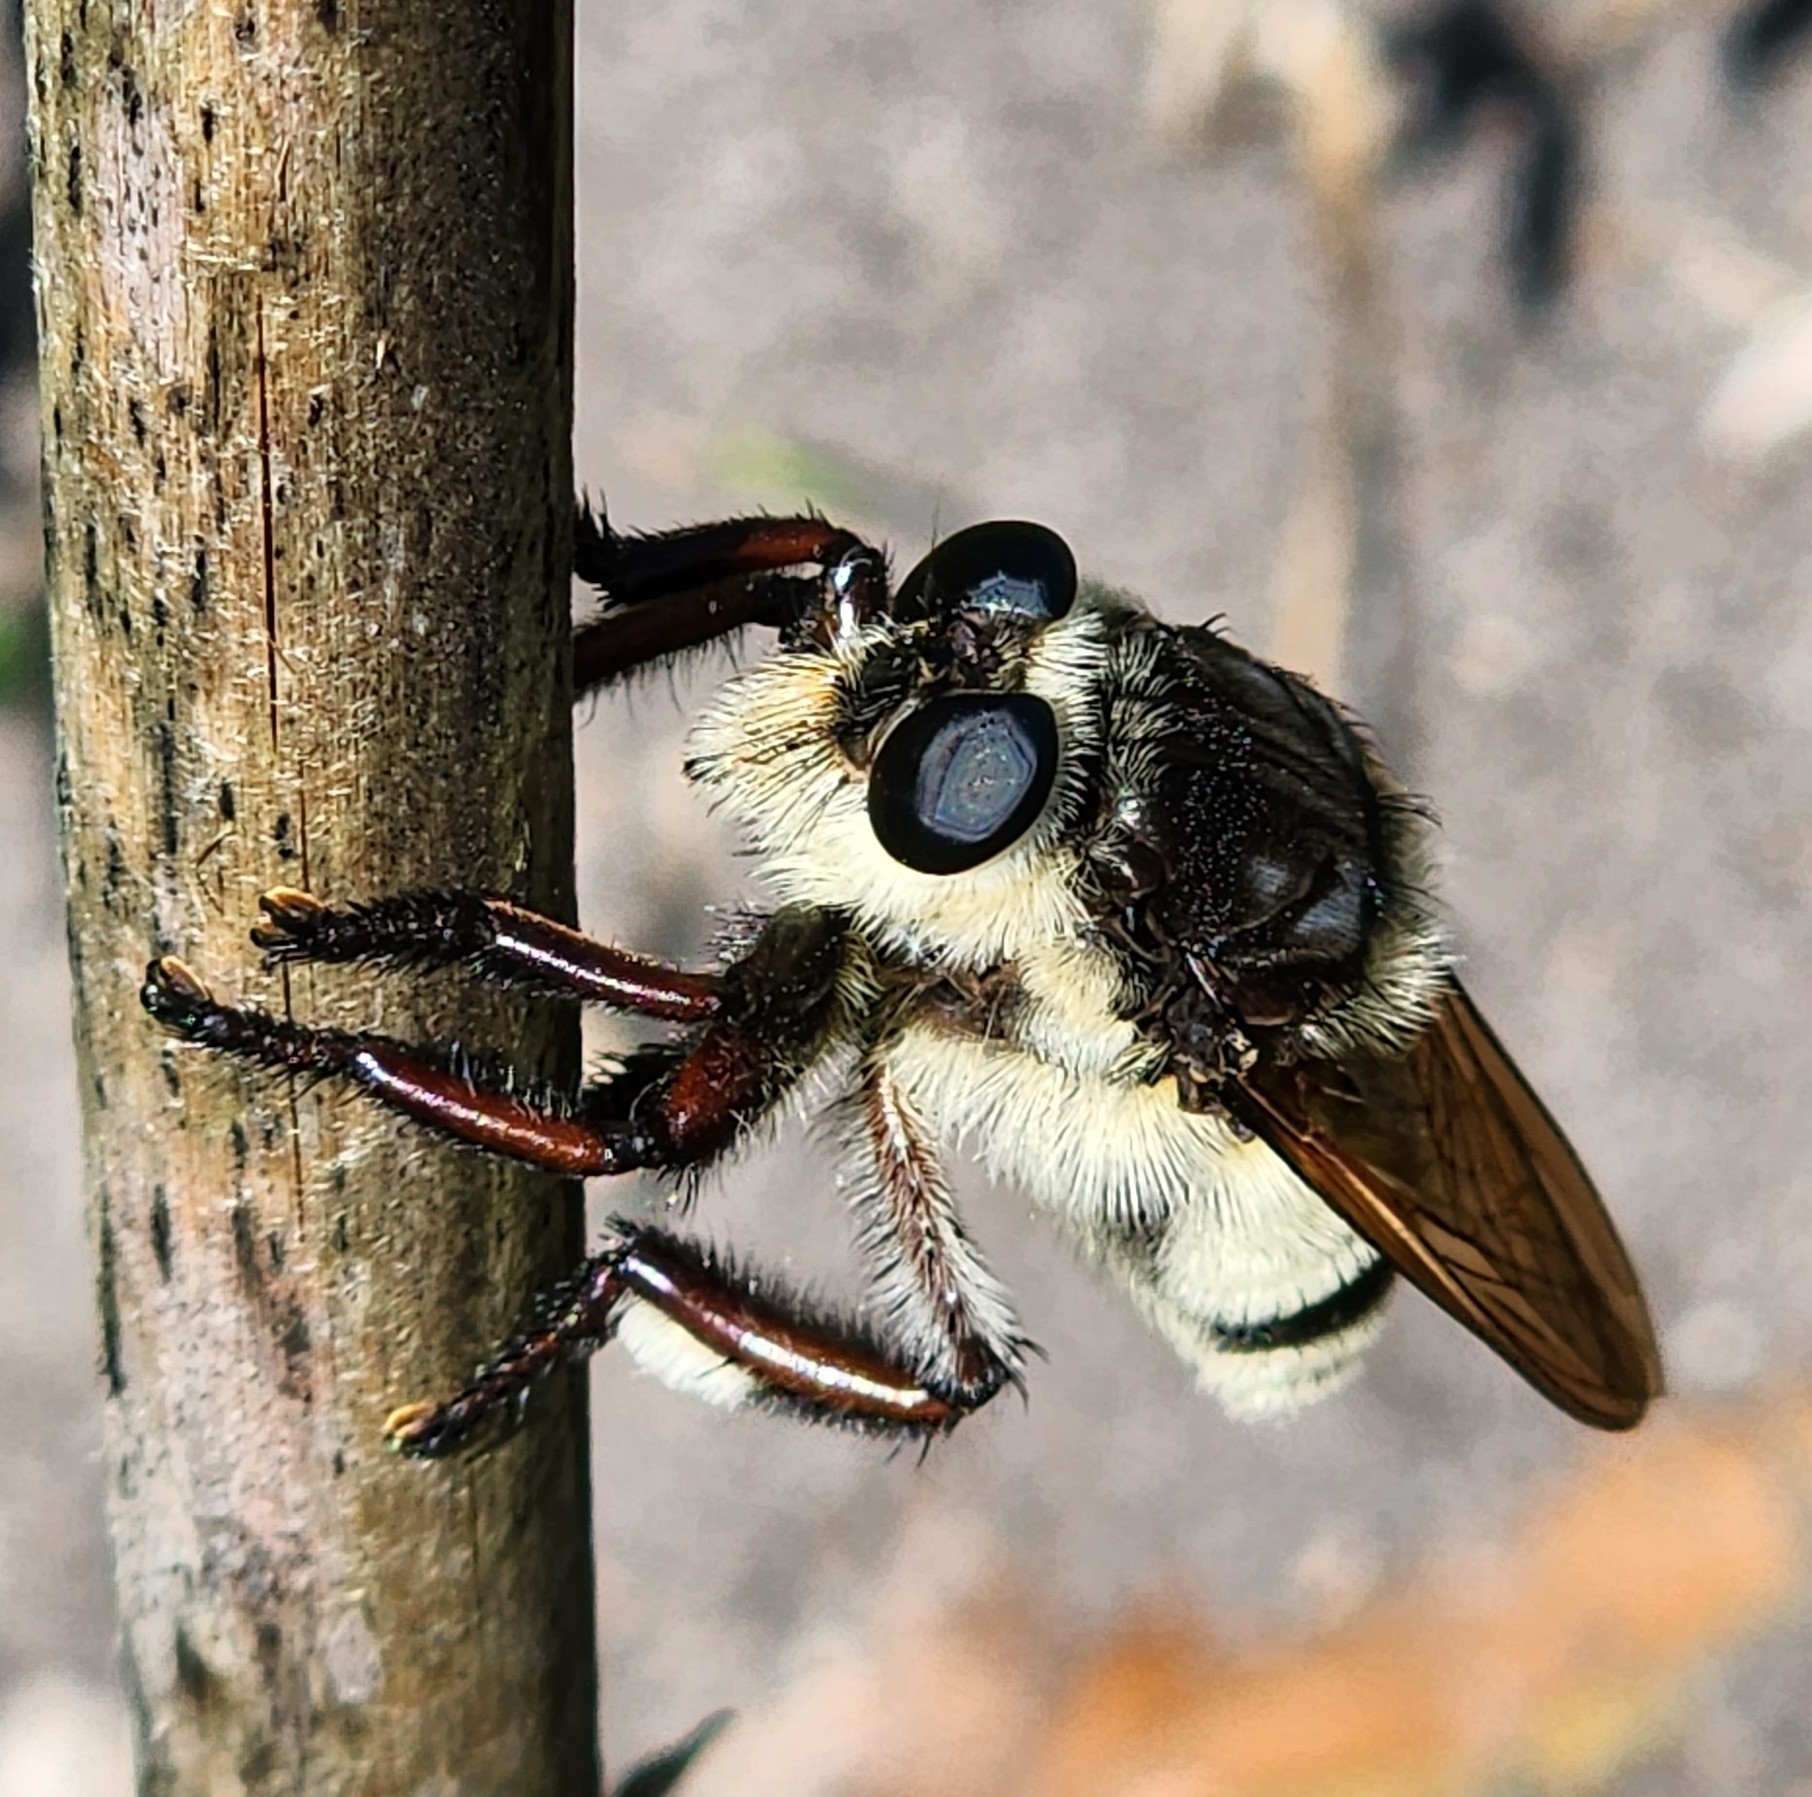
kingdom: Animalia
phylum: Arthropoda
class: Insecta
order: Diptera
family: Asilidae
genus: Mallophora
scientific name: Mallophora bomboides
